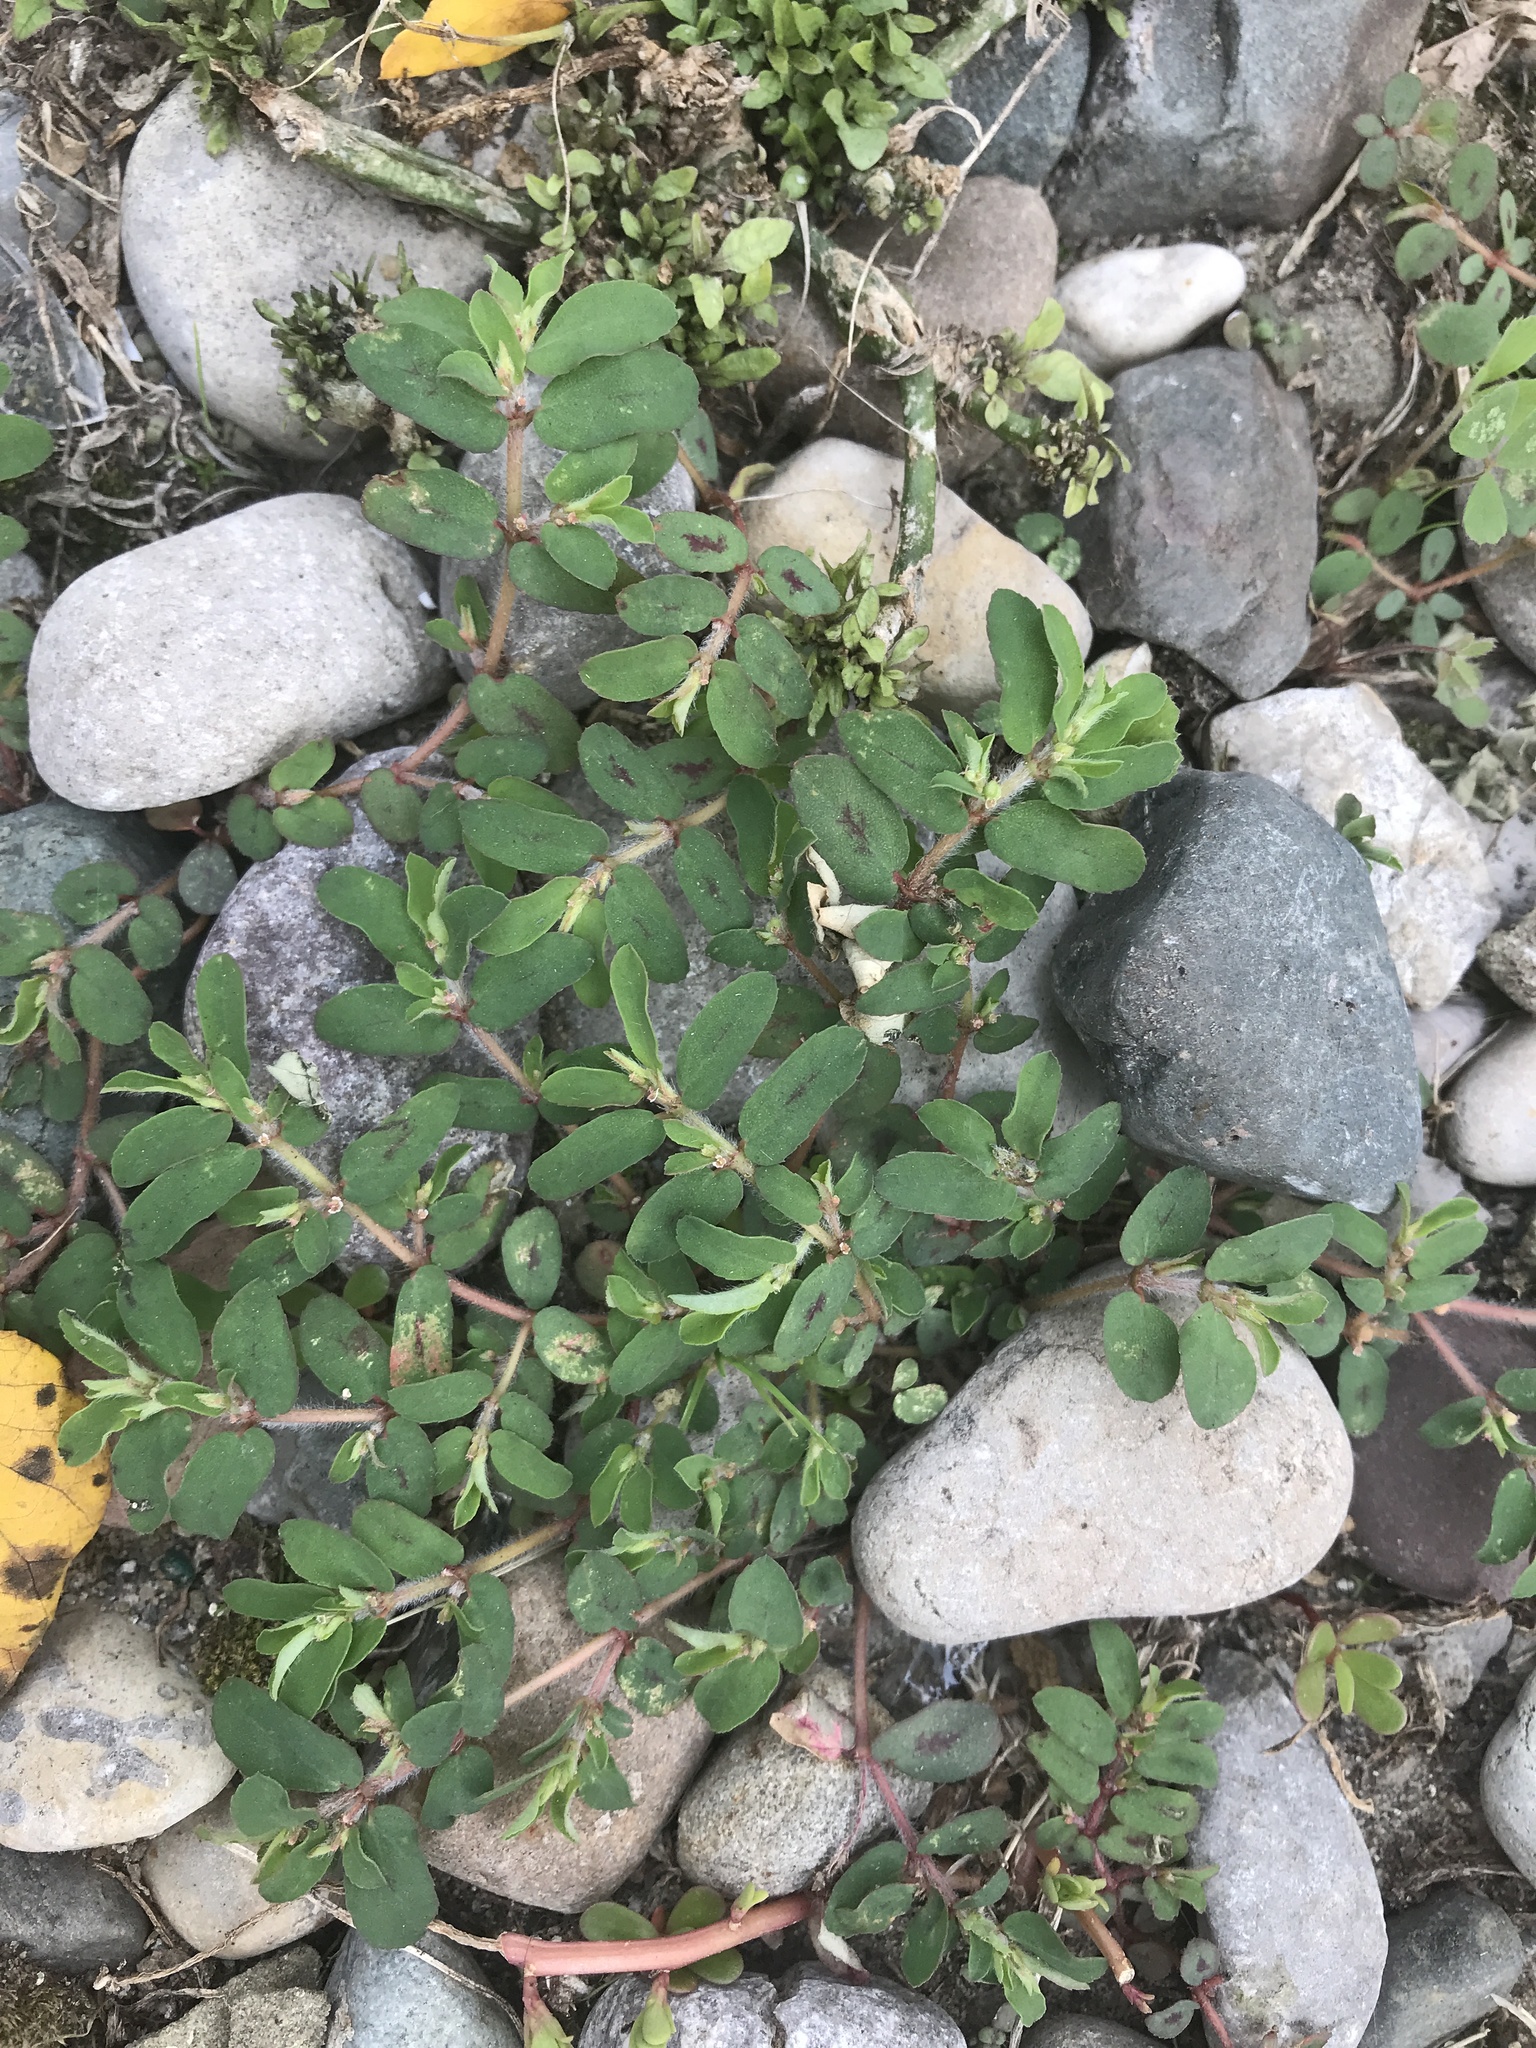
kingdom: Plantae
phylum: Tracheophyta
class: Magnoliopsida
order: Malpighiales
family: Euphorbiaceae
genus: Euphorbia
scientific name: Euphorbia maculata
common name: Spotted spurge
